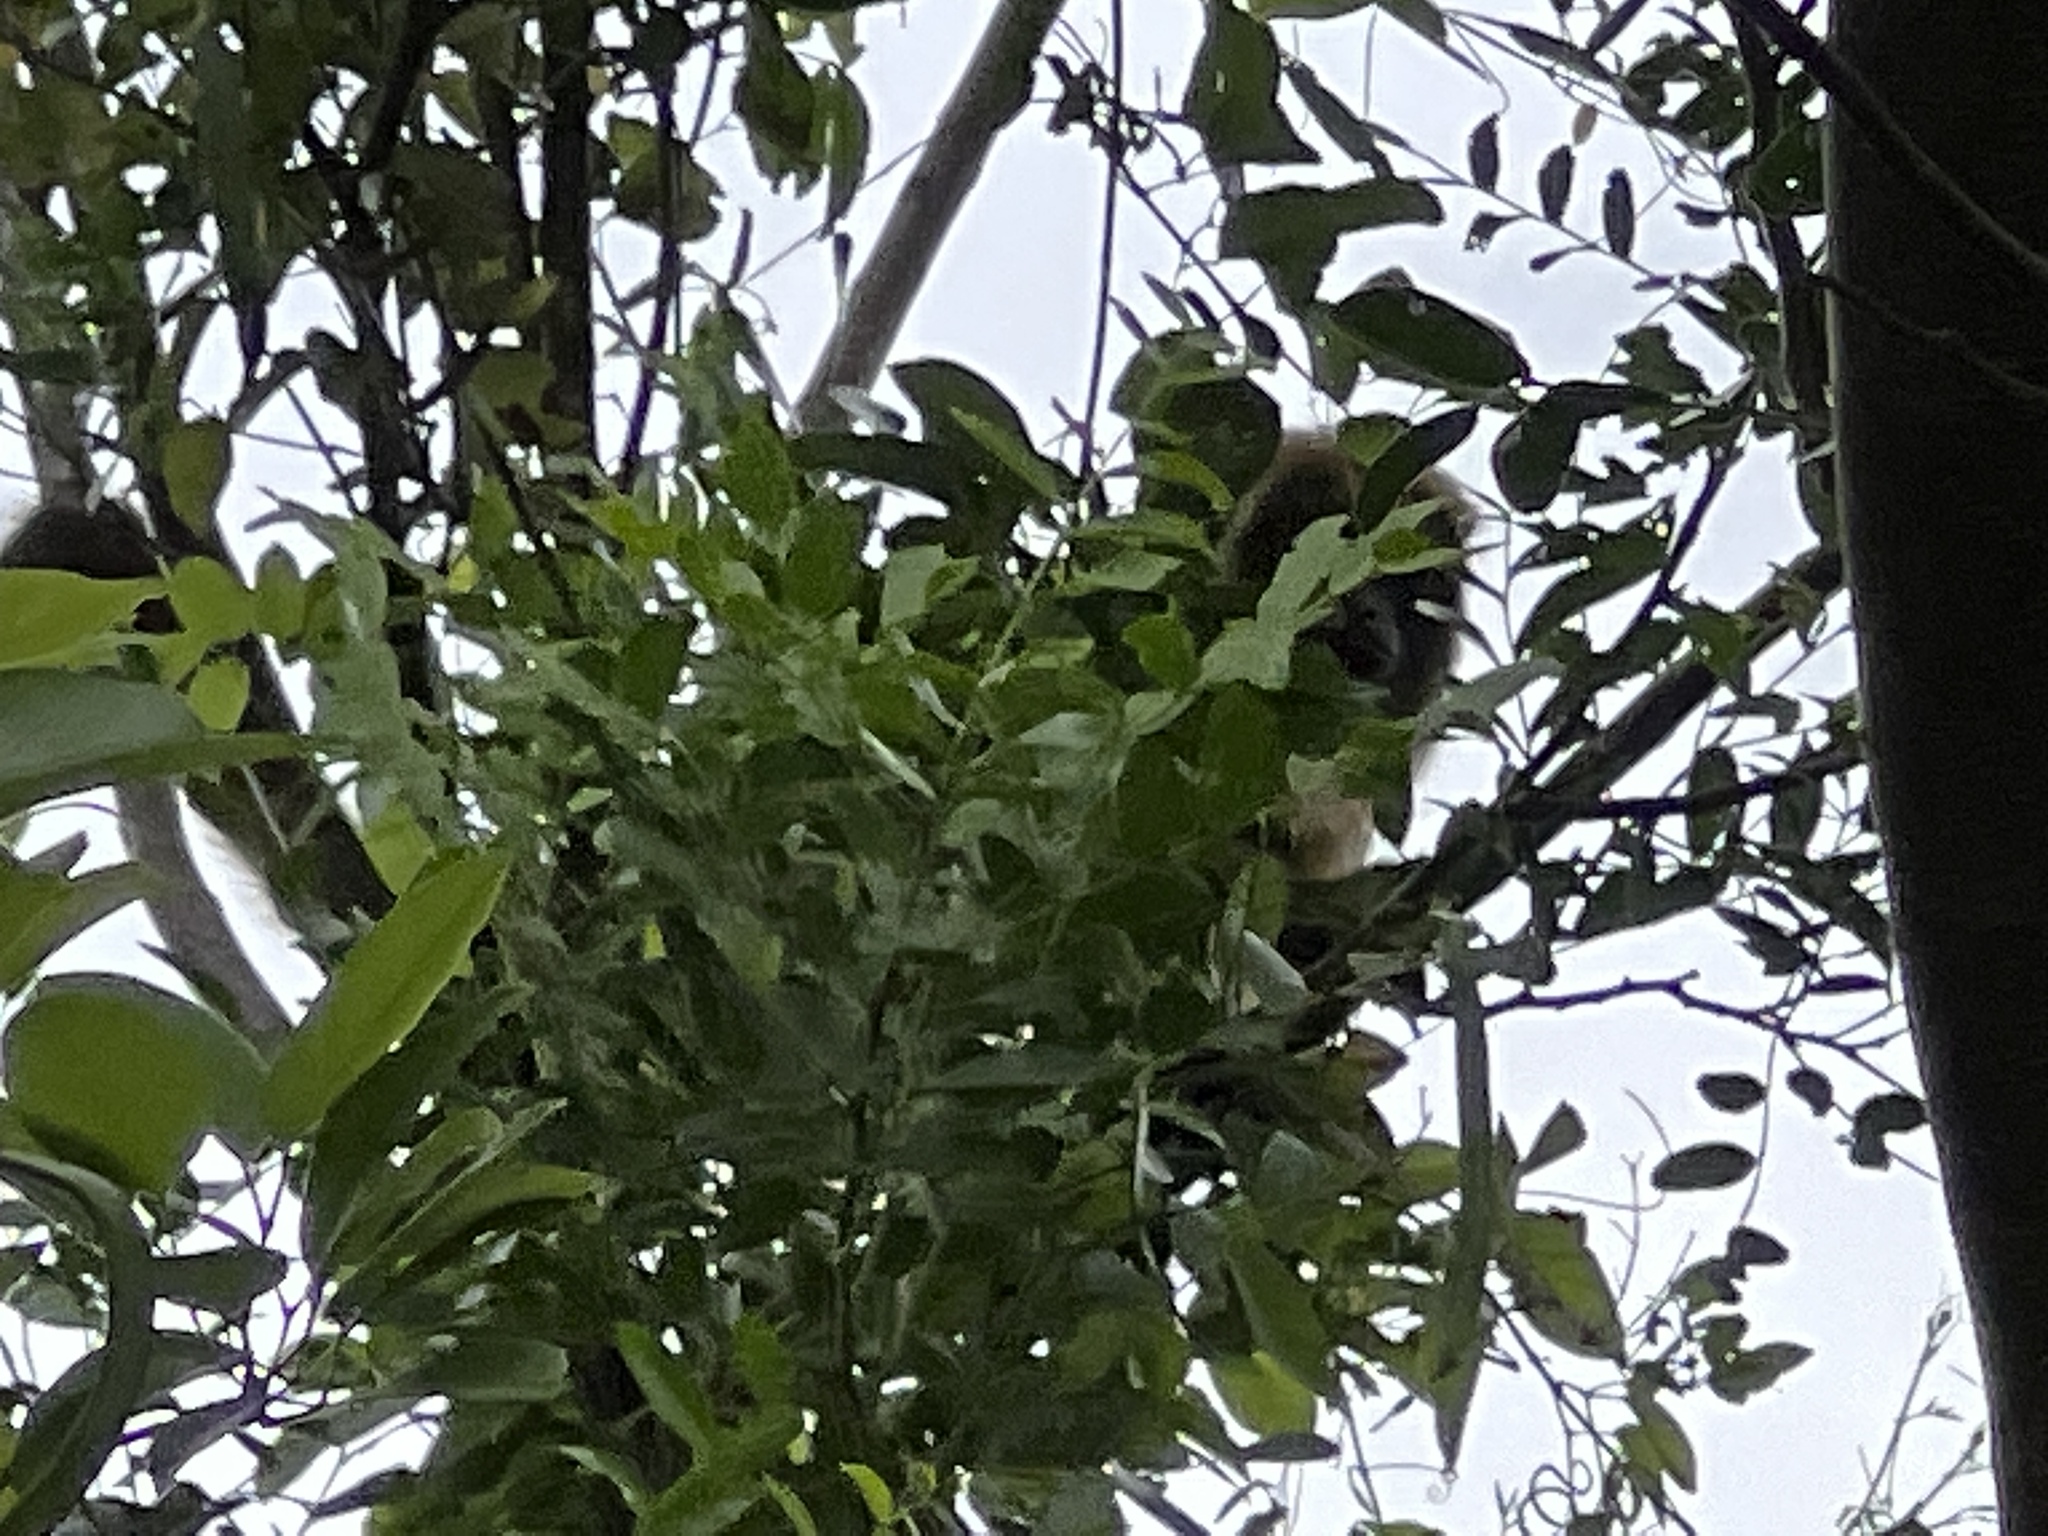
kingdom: Animalia
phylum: Chordata
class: Mammalia
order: Primates
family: Atelidae
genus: Alouatta
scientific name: Alouatta caraya
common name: Black howler
